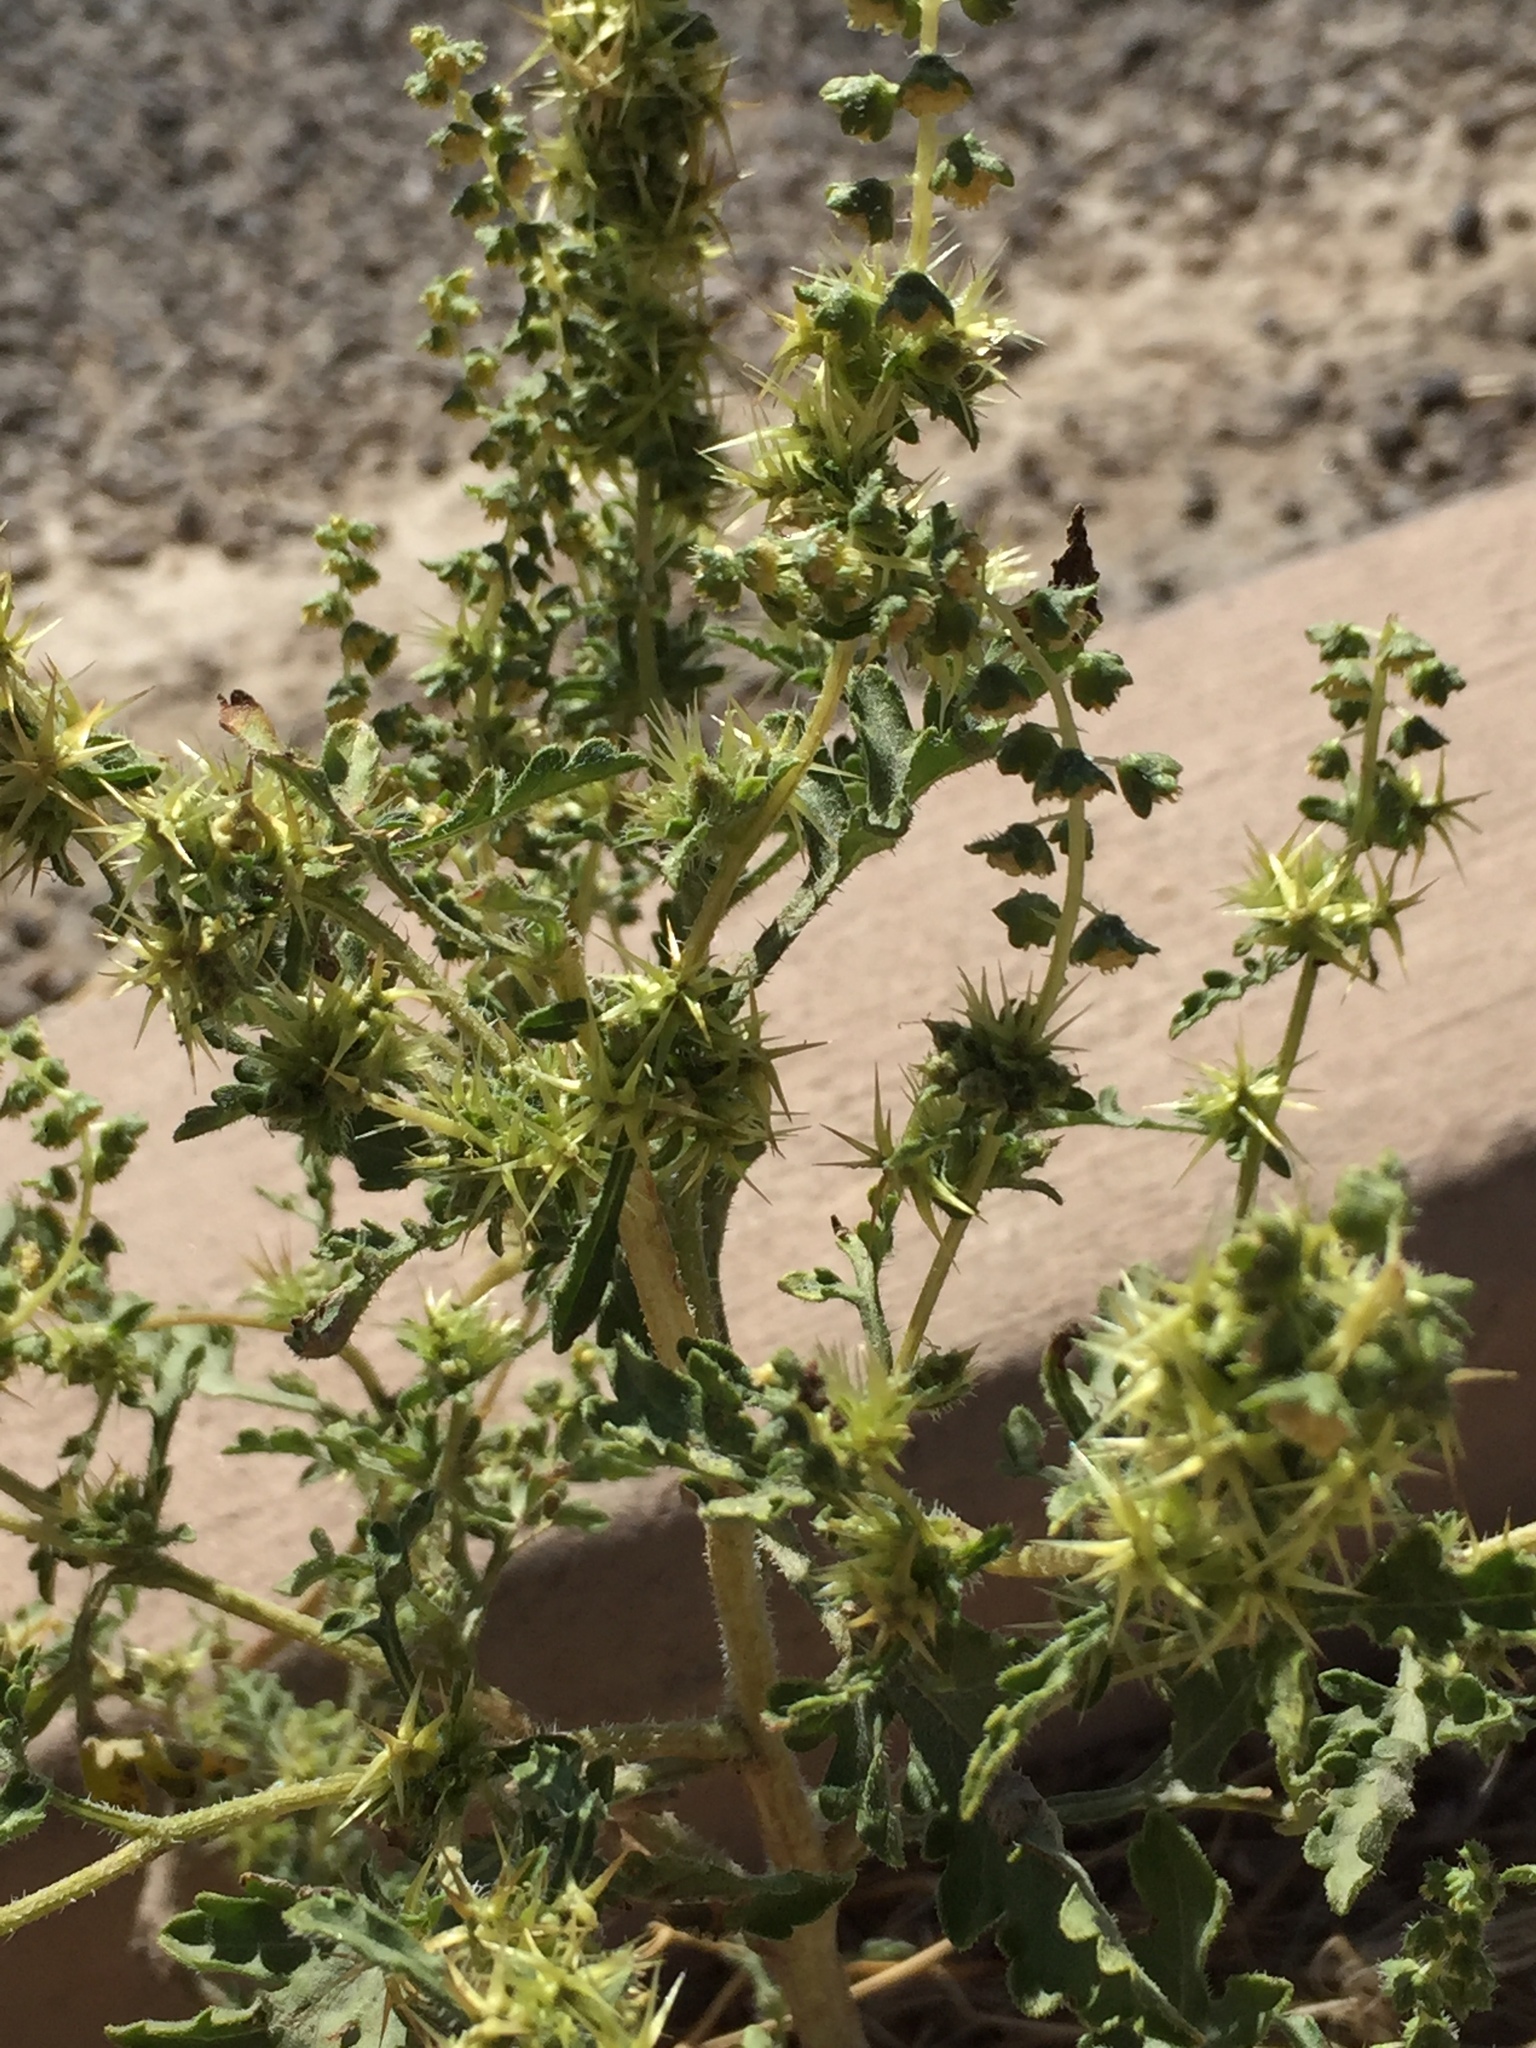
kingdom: Plantae
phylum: Tracheophyta
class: Magnoliopsida
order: Asterales
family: Asteraceae
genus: Ambrosia
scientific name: Ambrosia acanthicarpa
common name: Hooker's bur ragweed
